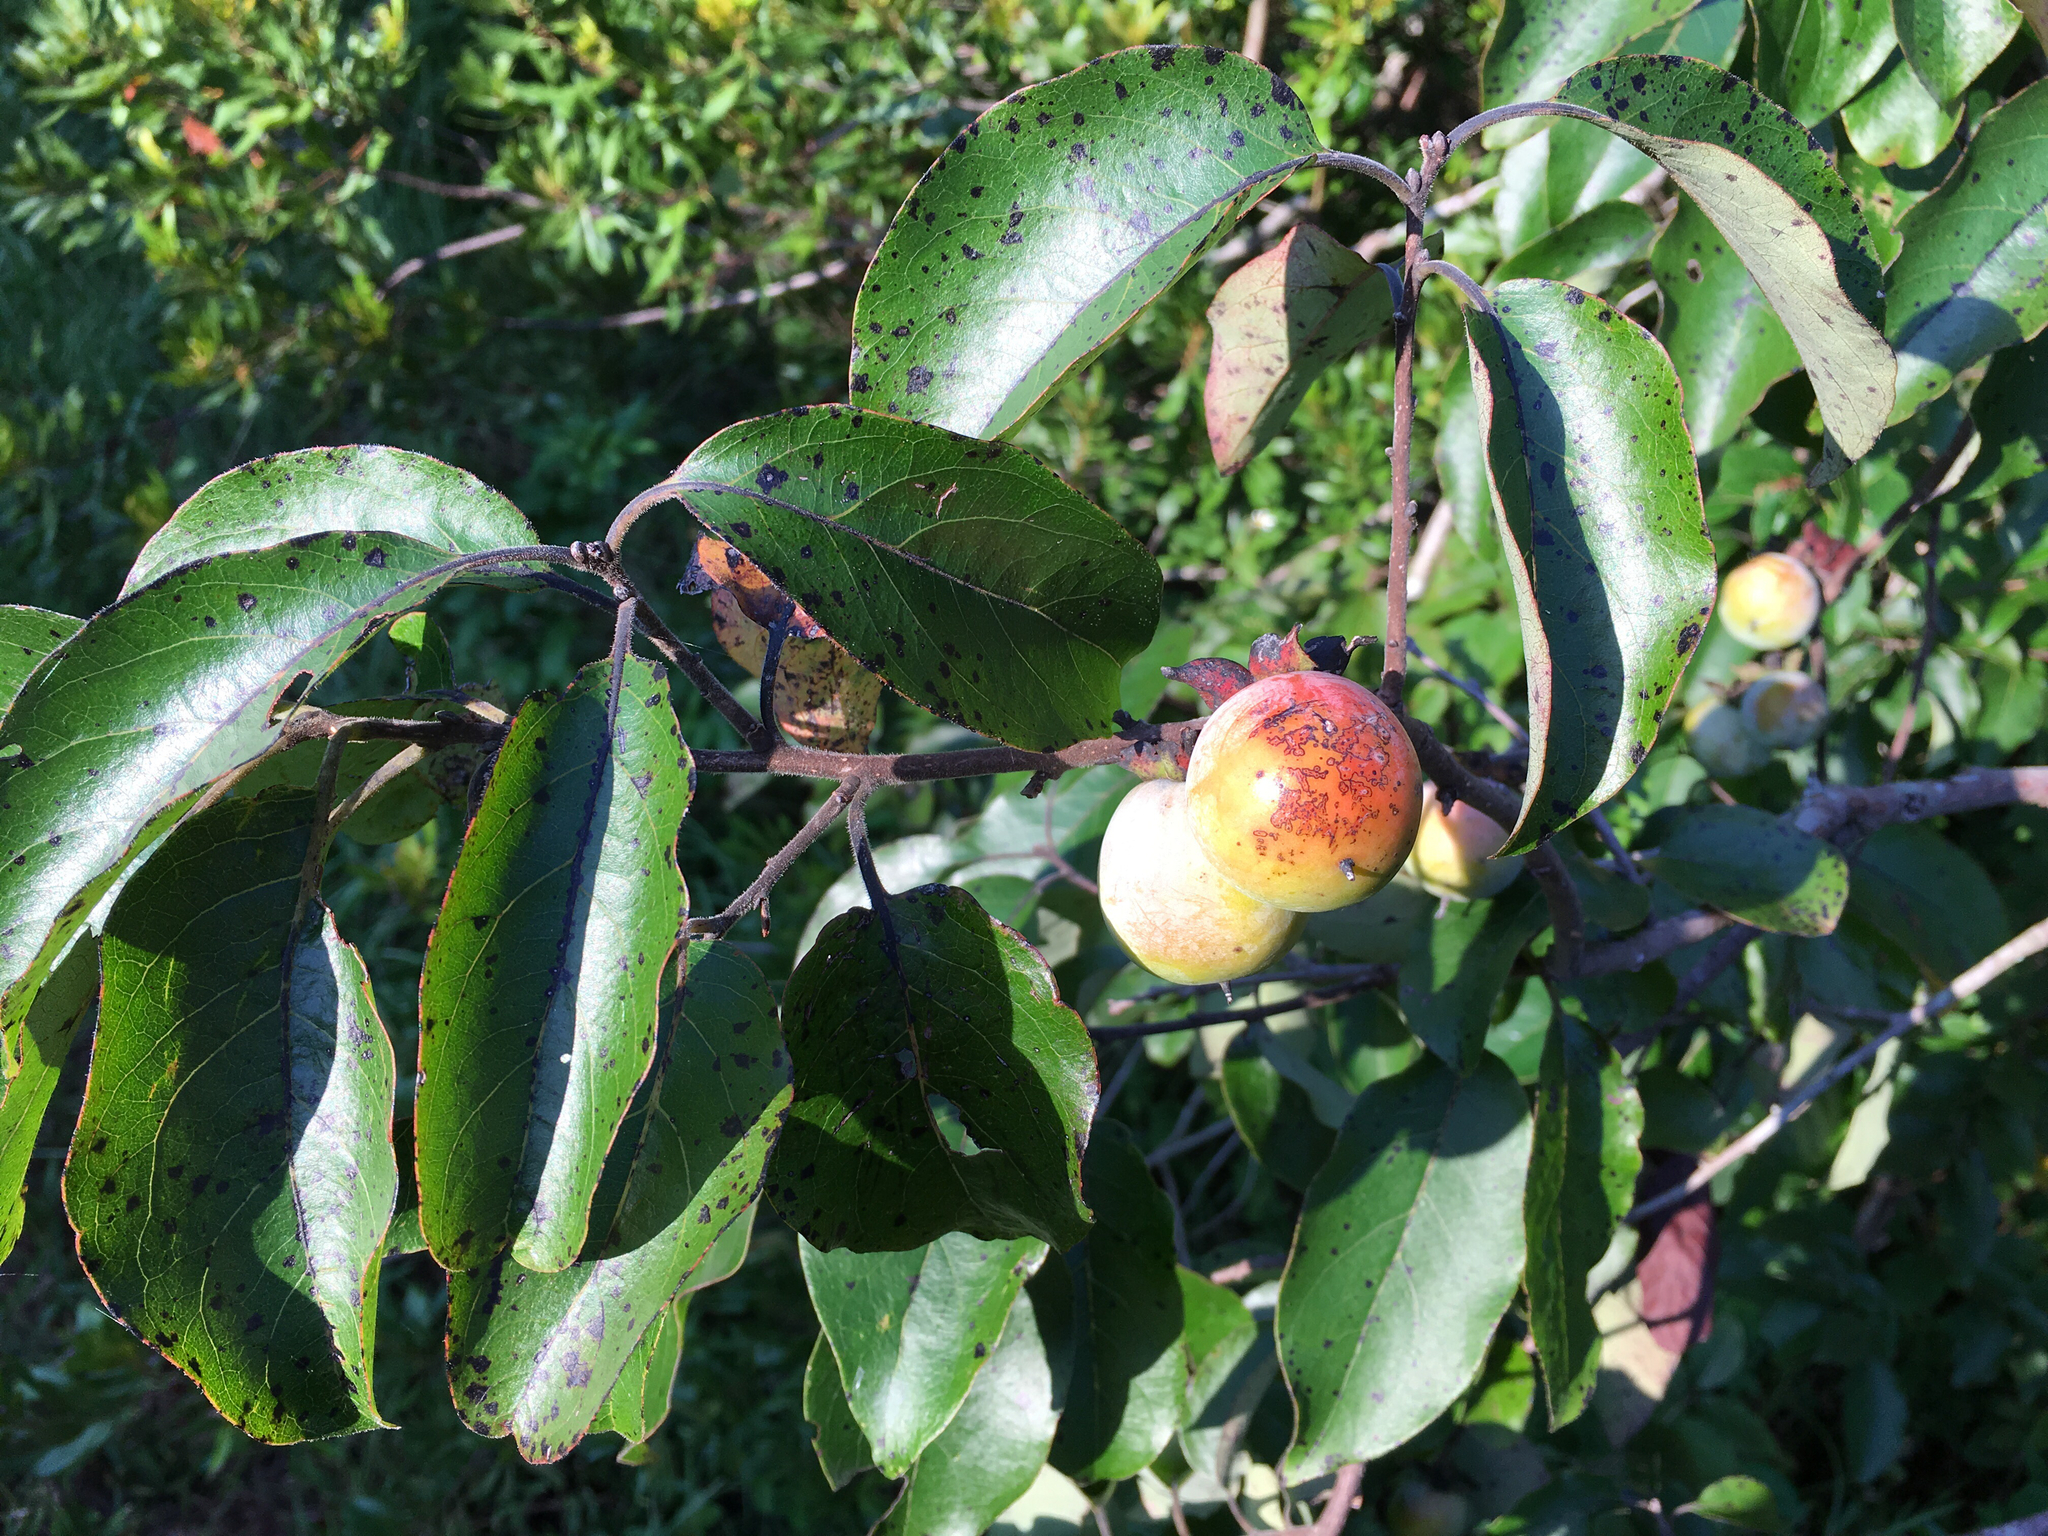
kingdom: Plantae
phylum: Tracheophyta
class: Magnoliopsida
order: Ericales
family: Ebenaceae
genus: Diospyros
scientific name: Diospyros virginiana
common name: Persimmon
